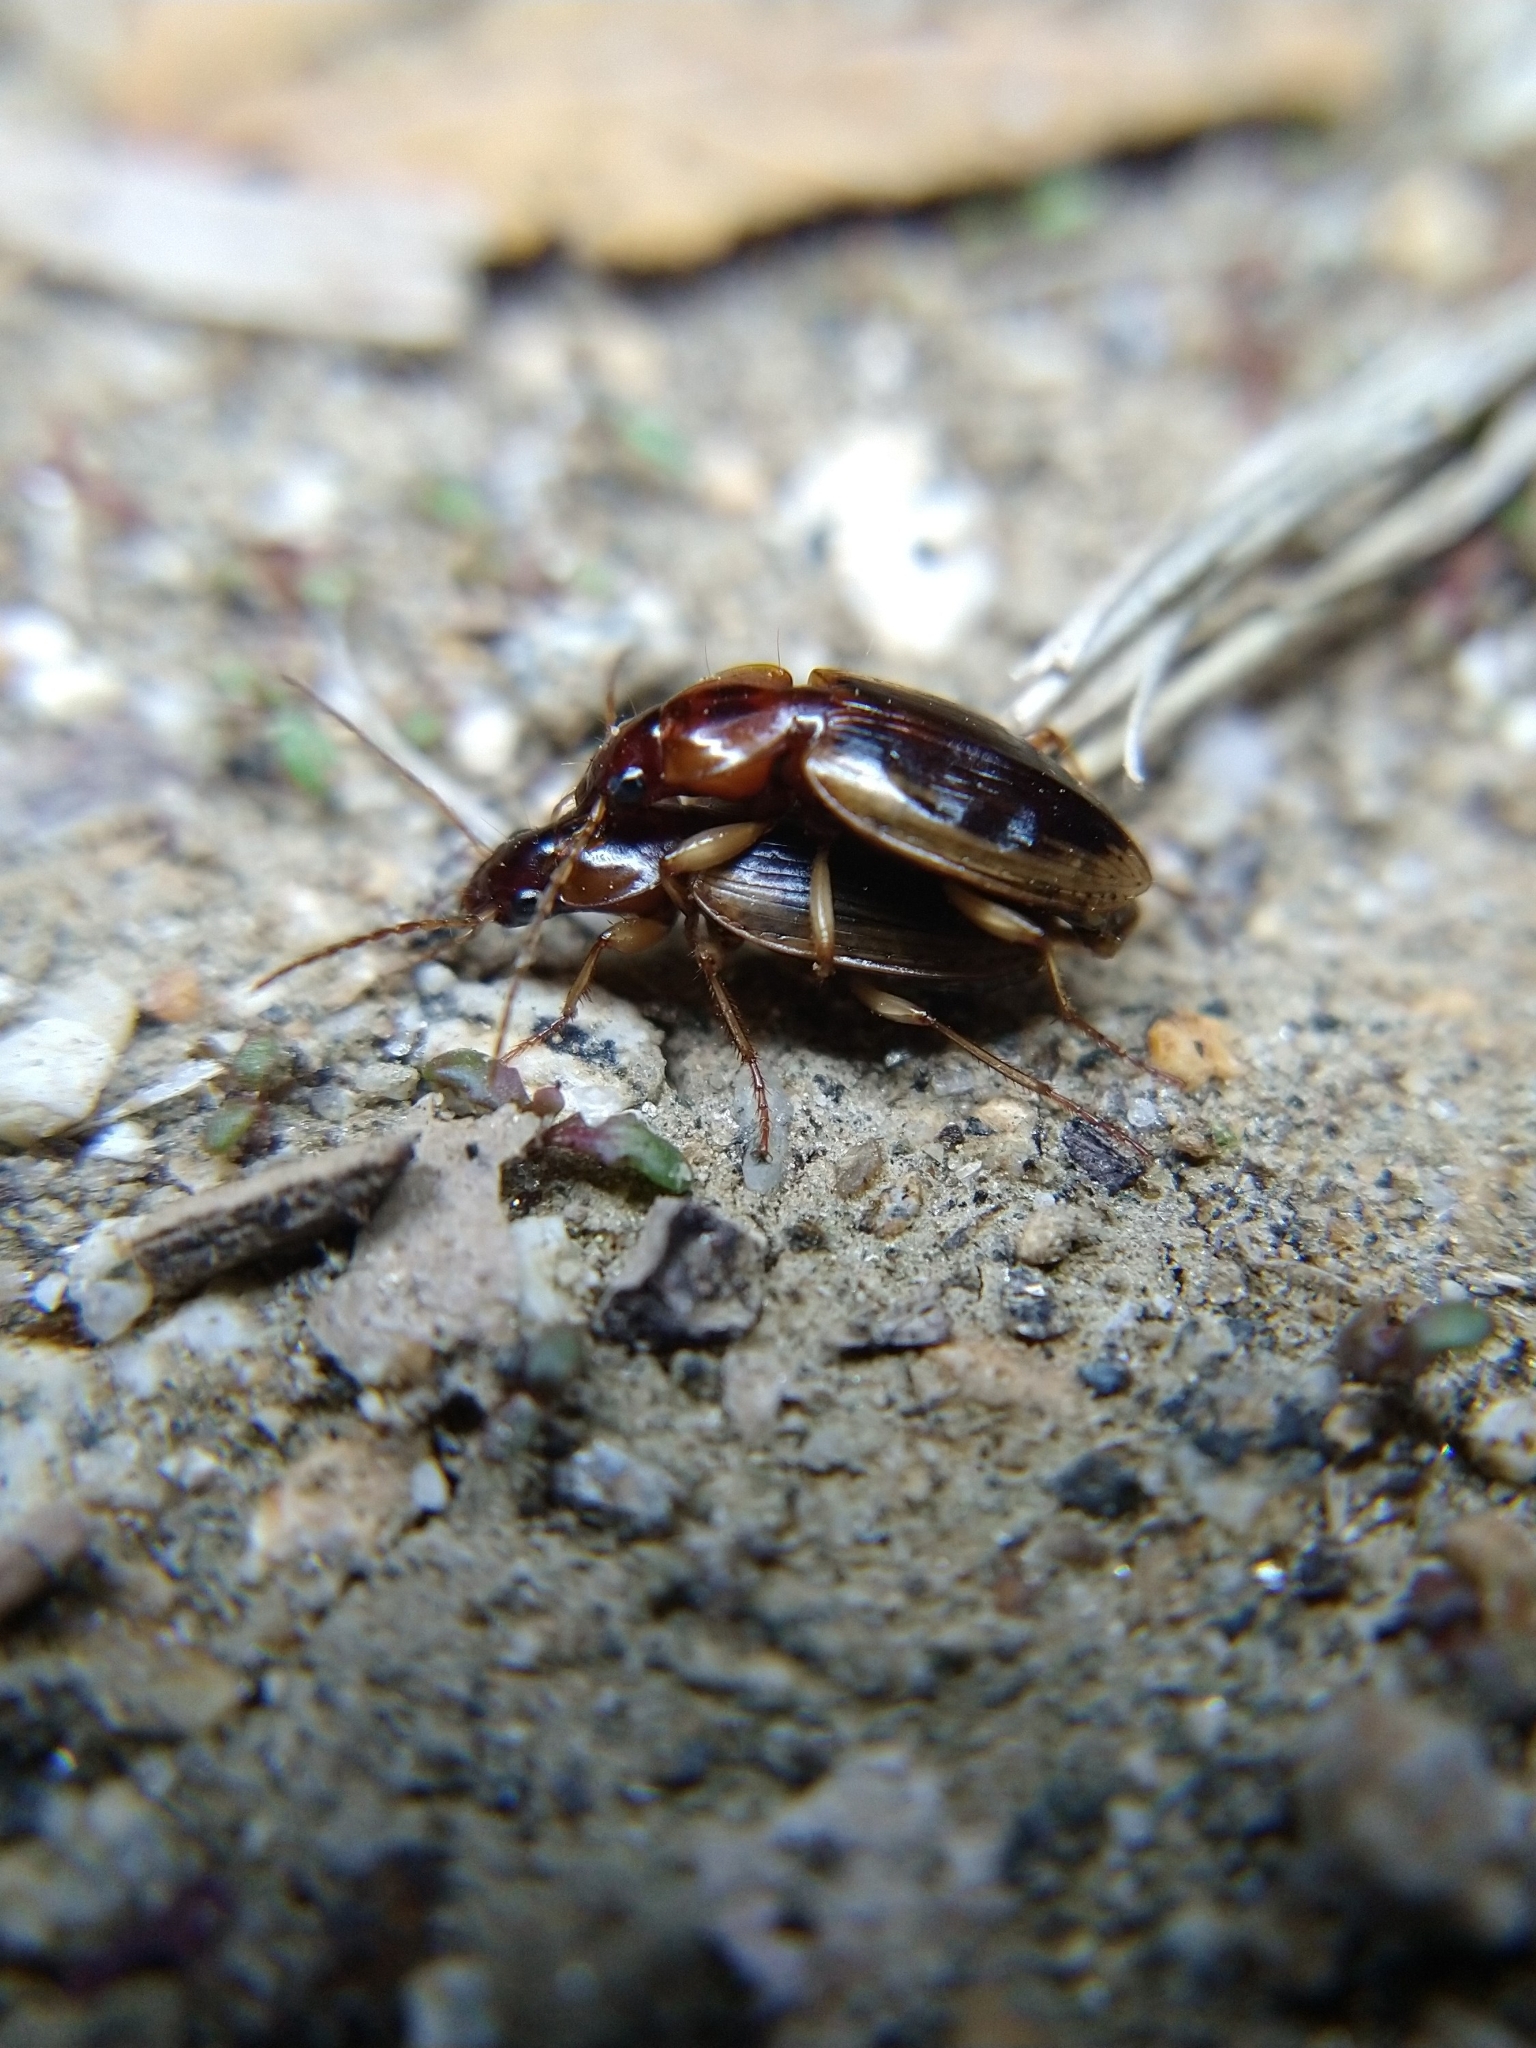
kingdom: Animalia
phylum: Arthropoda
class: Insecta
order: Coleoptera
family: Carabidae
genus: Tanystoma
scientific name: Tanystoma maculicolle
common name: Tule beetle
